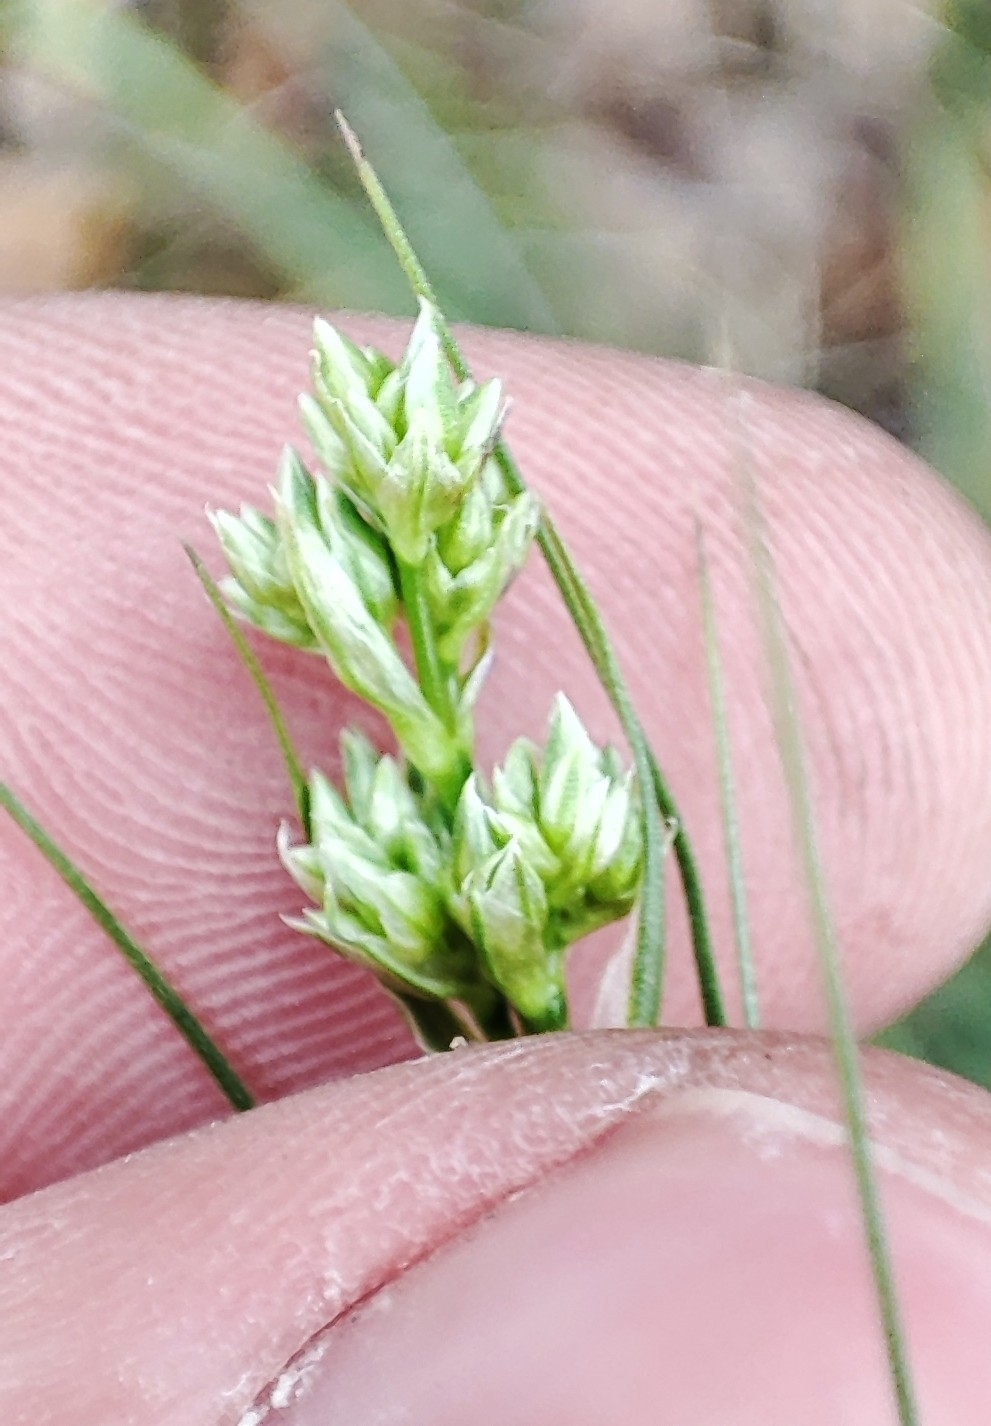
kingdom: Plantae
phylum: Tracheophyta
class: Magnoliopsida
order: Caryophyllales
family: Caryophyllaceae
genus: Eremogone
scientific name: Eremogone longifolia
